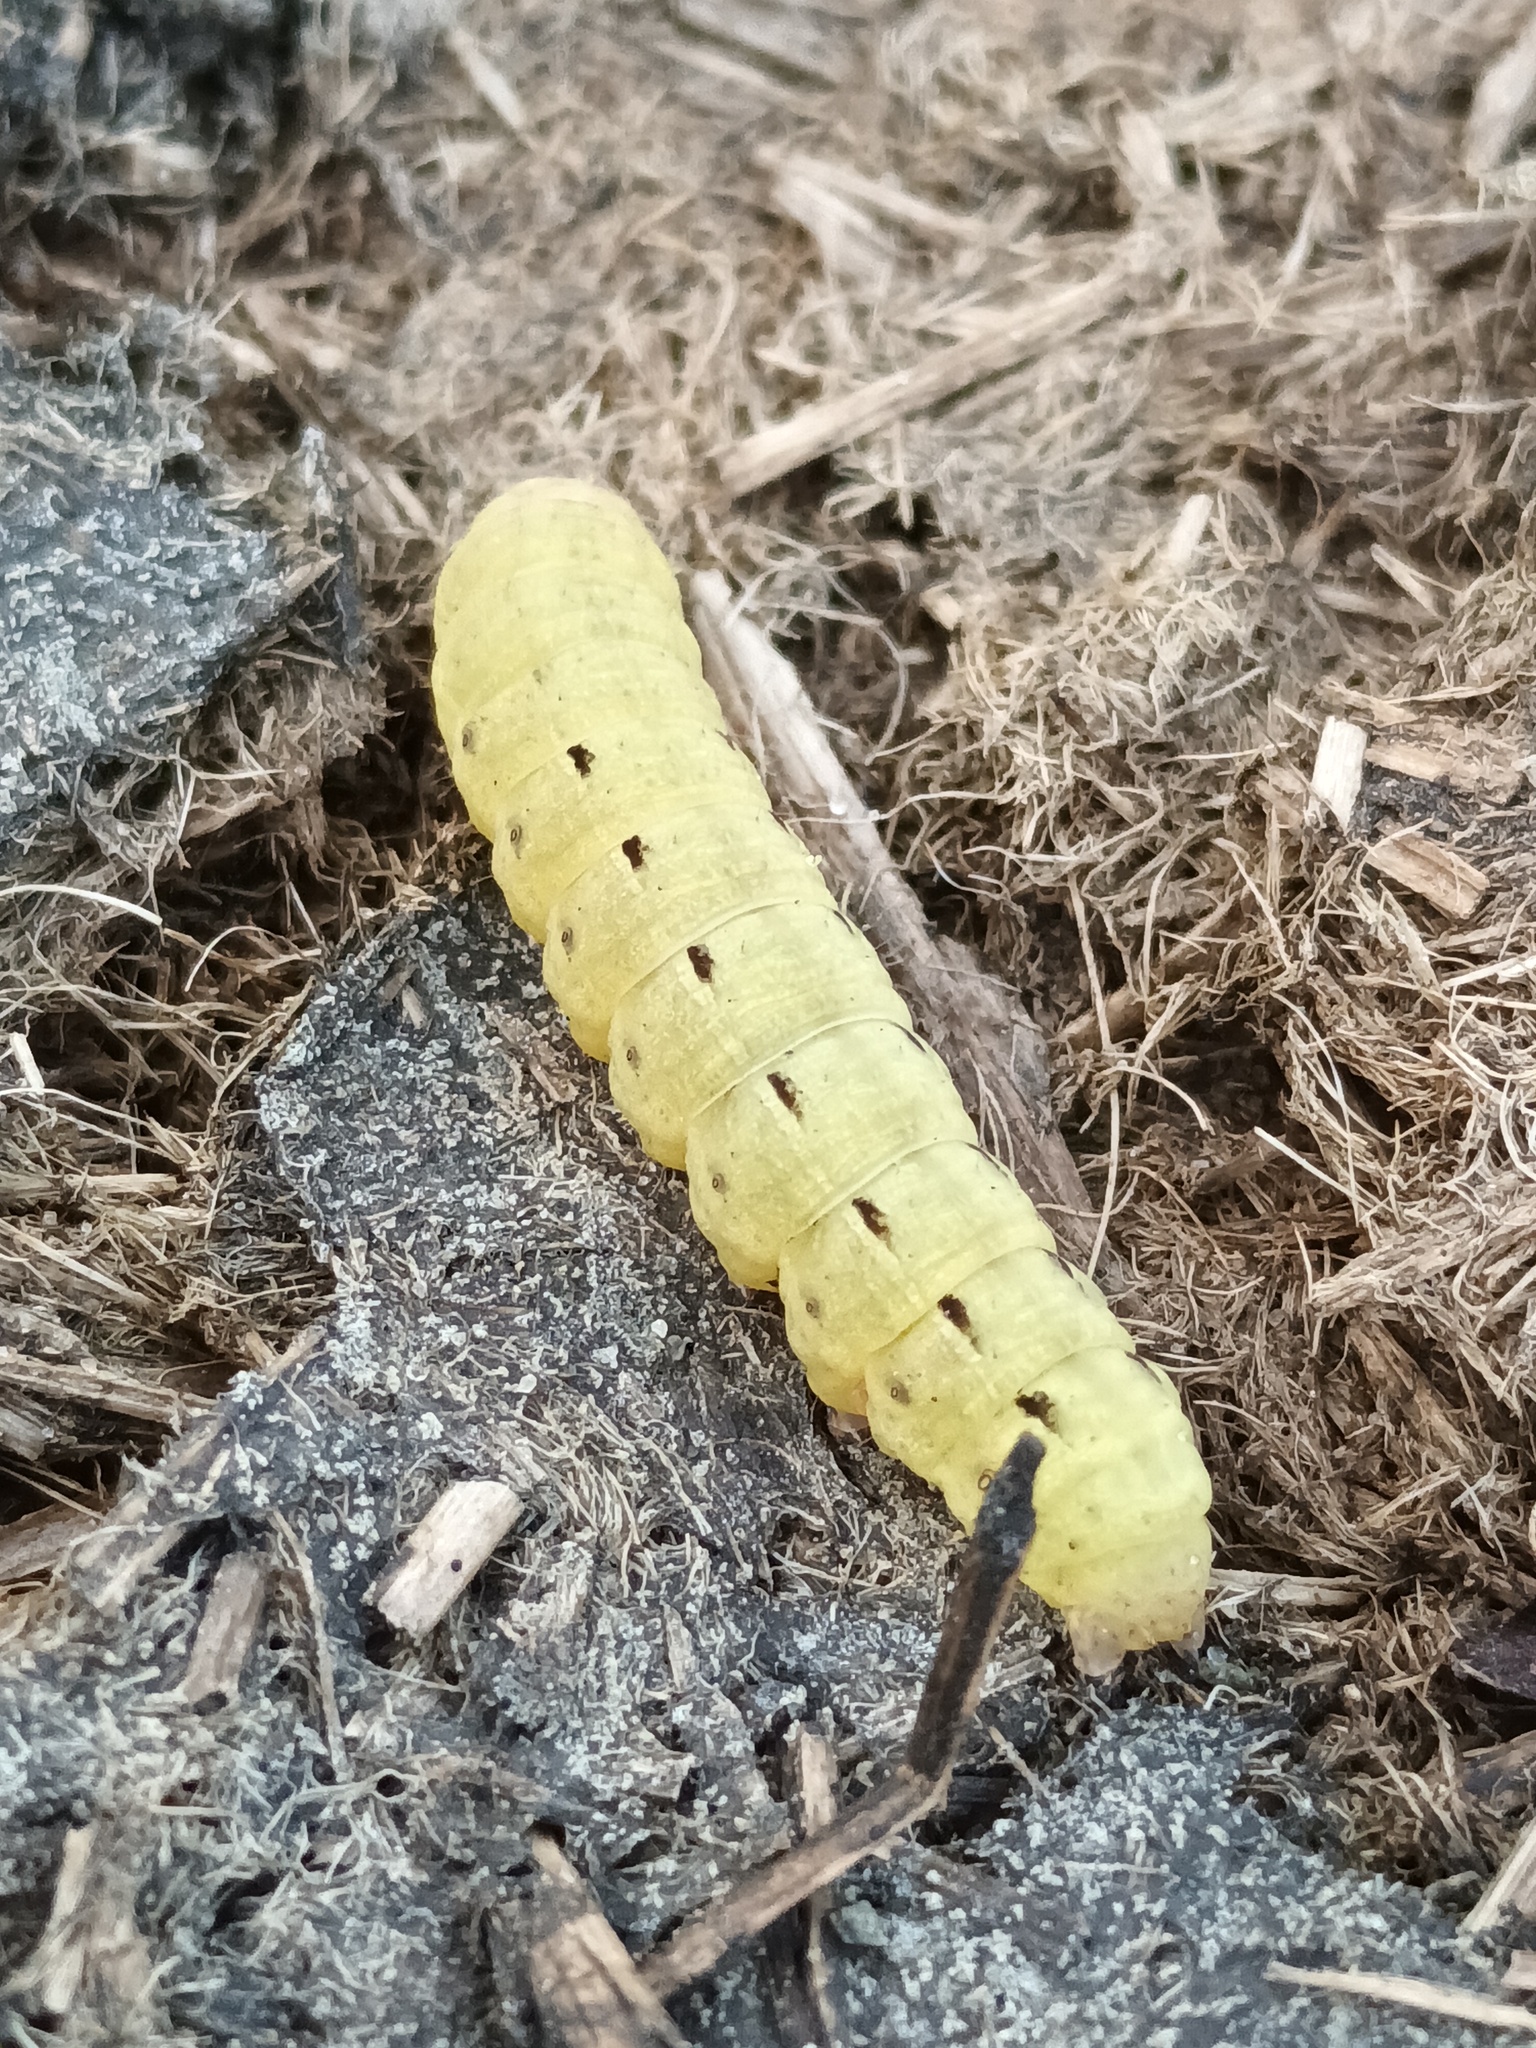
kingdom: Animalia
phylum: Arthropoda
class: Insecta
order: Lepidoptera
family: Noctuidae
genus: Noctua
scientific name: Noctua pronuba
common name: Large yellow underwing
